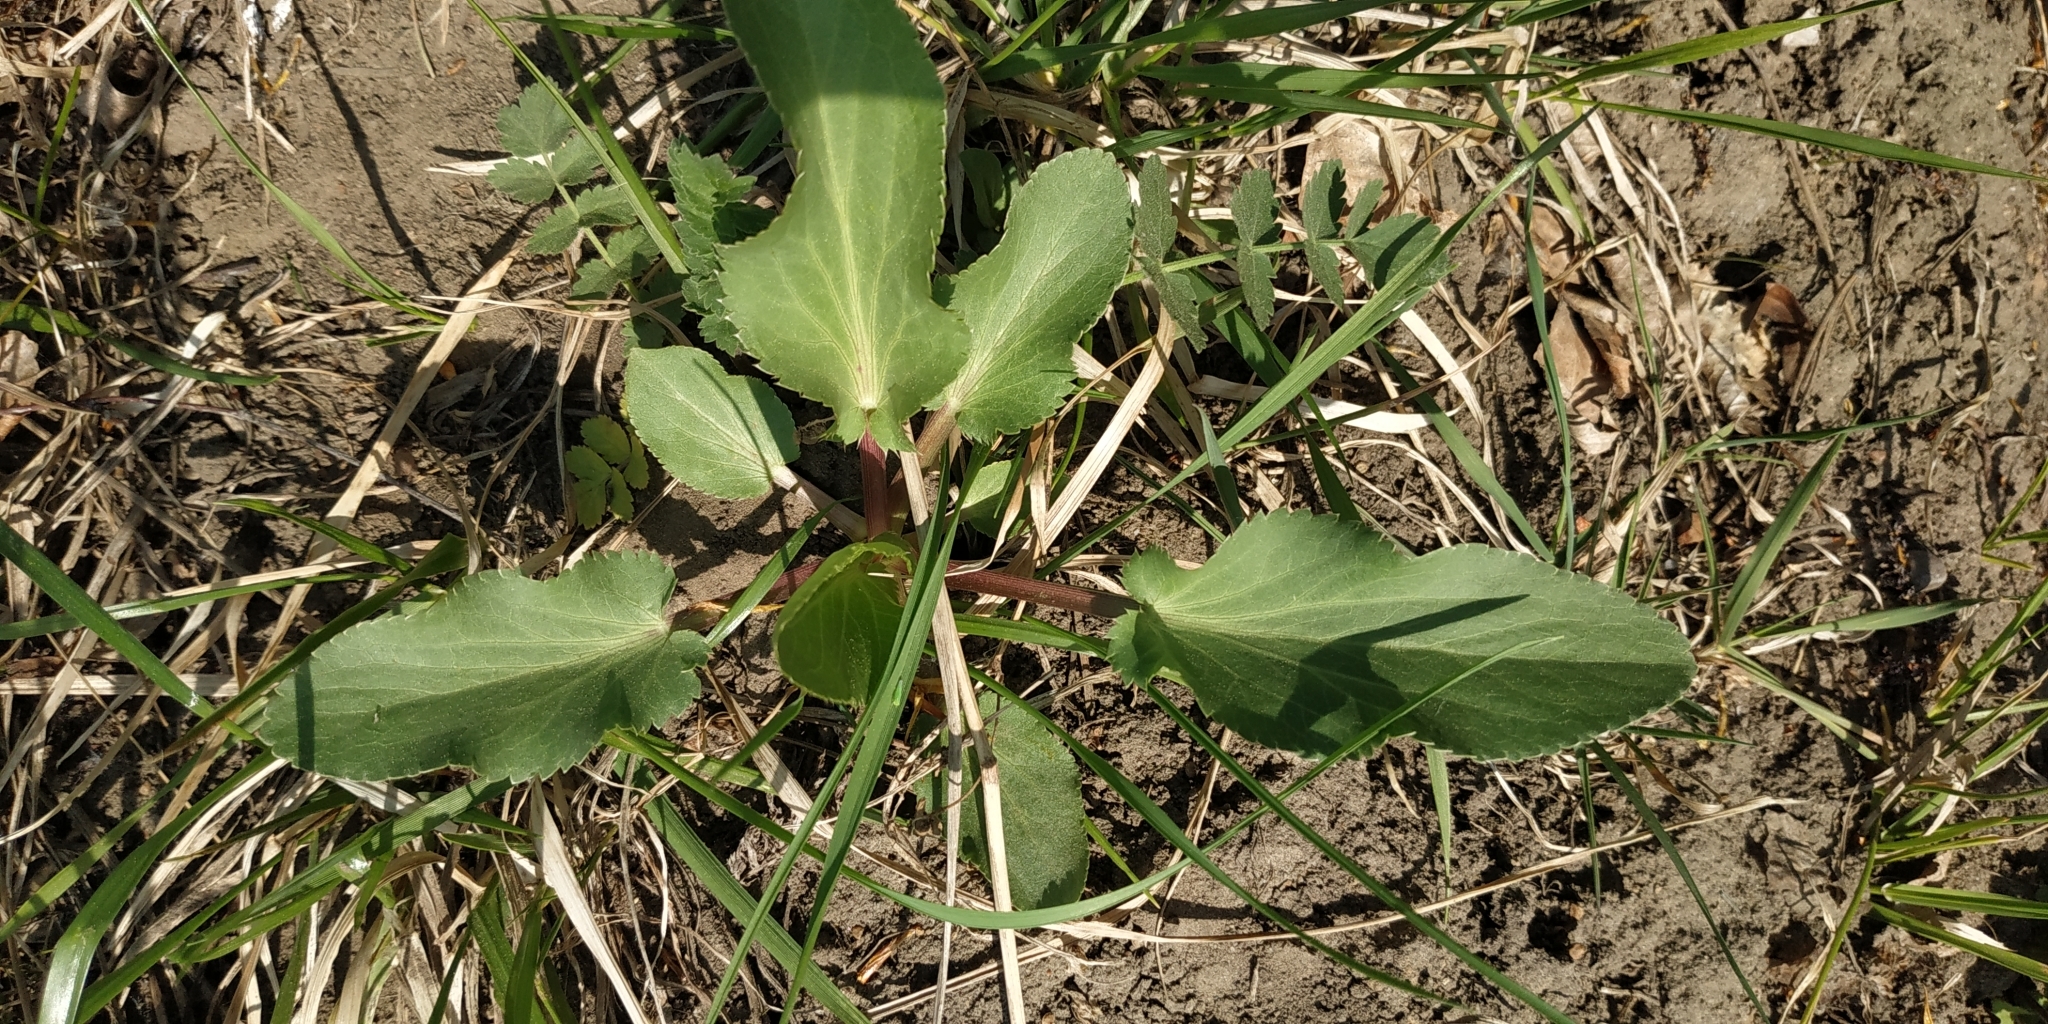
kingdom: Plantae
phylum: Tracheophyta
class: Magnoliopsida
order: Apiales
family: Apiaceae
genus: Eryngium
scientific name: Eryngium planum
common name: Blue eryngo
